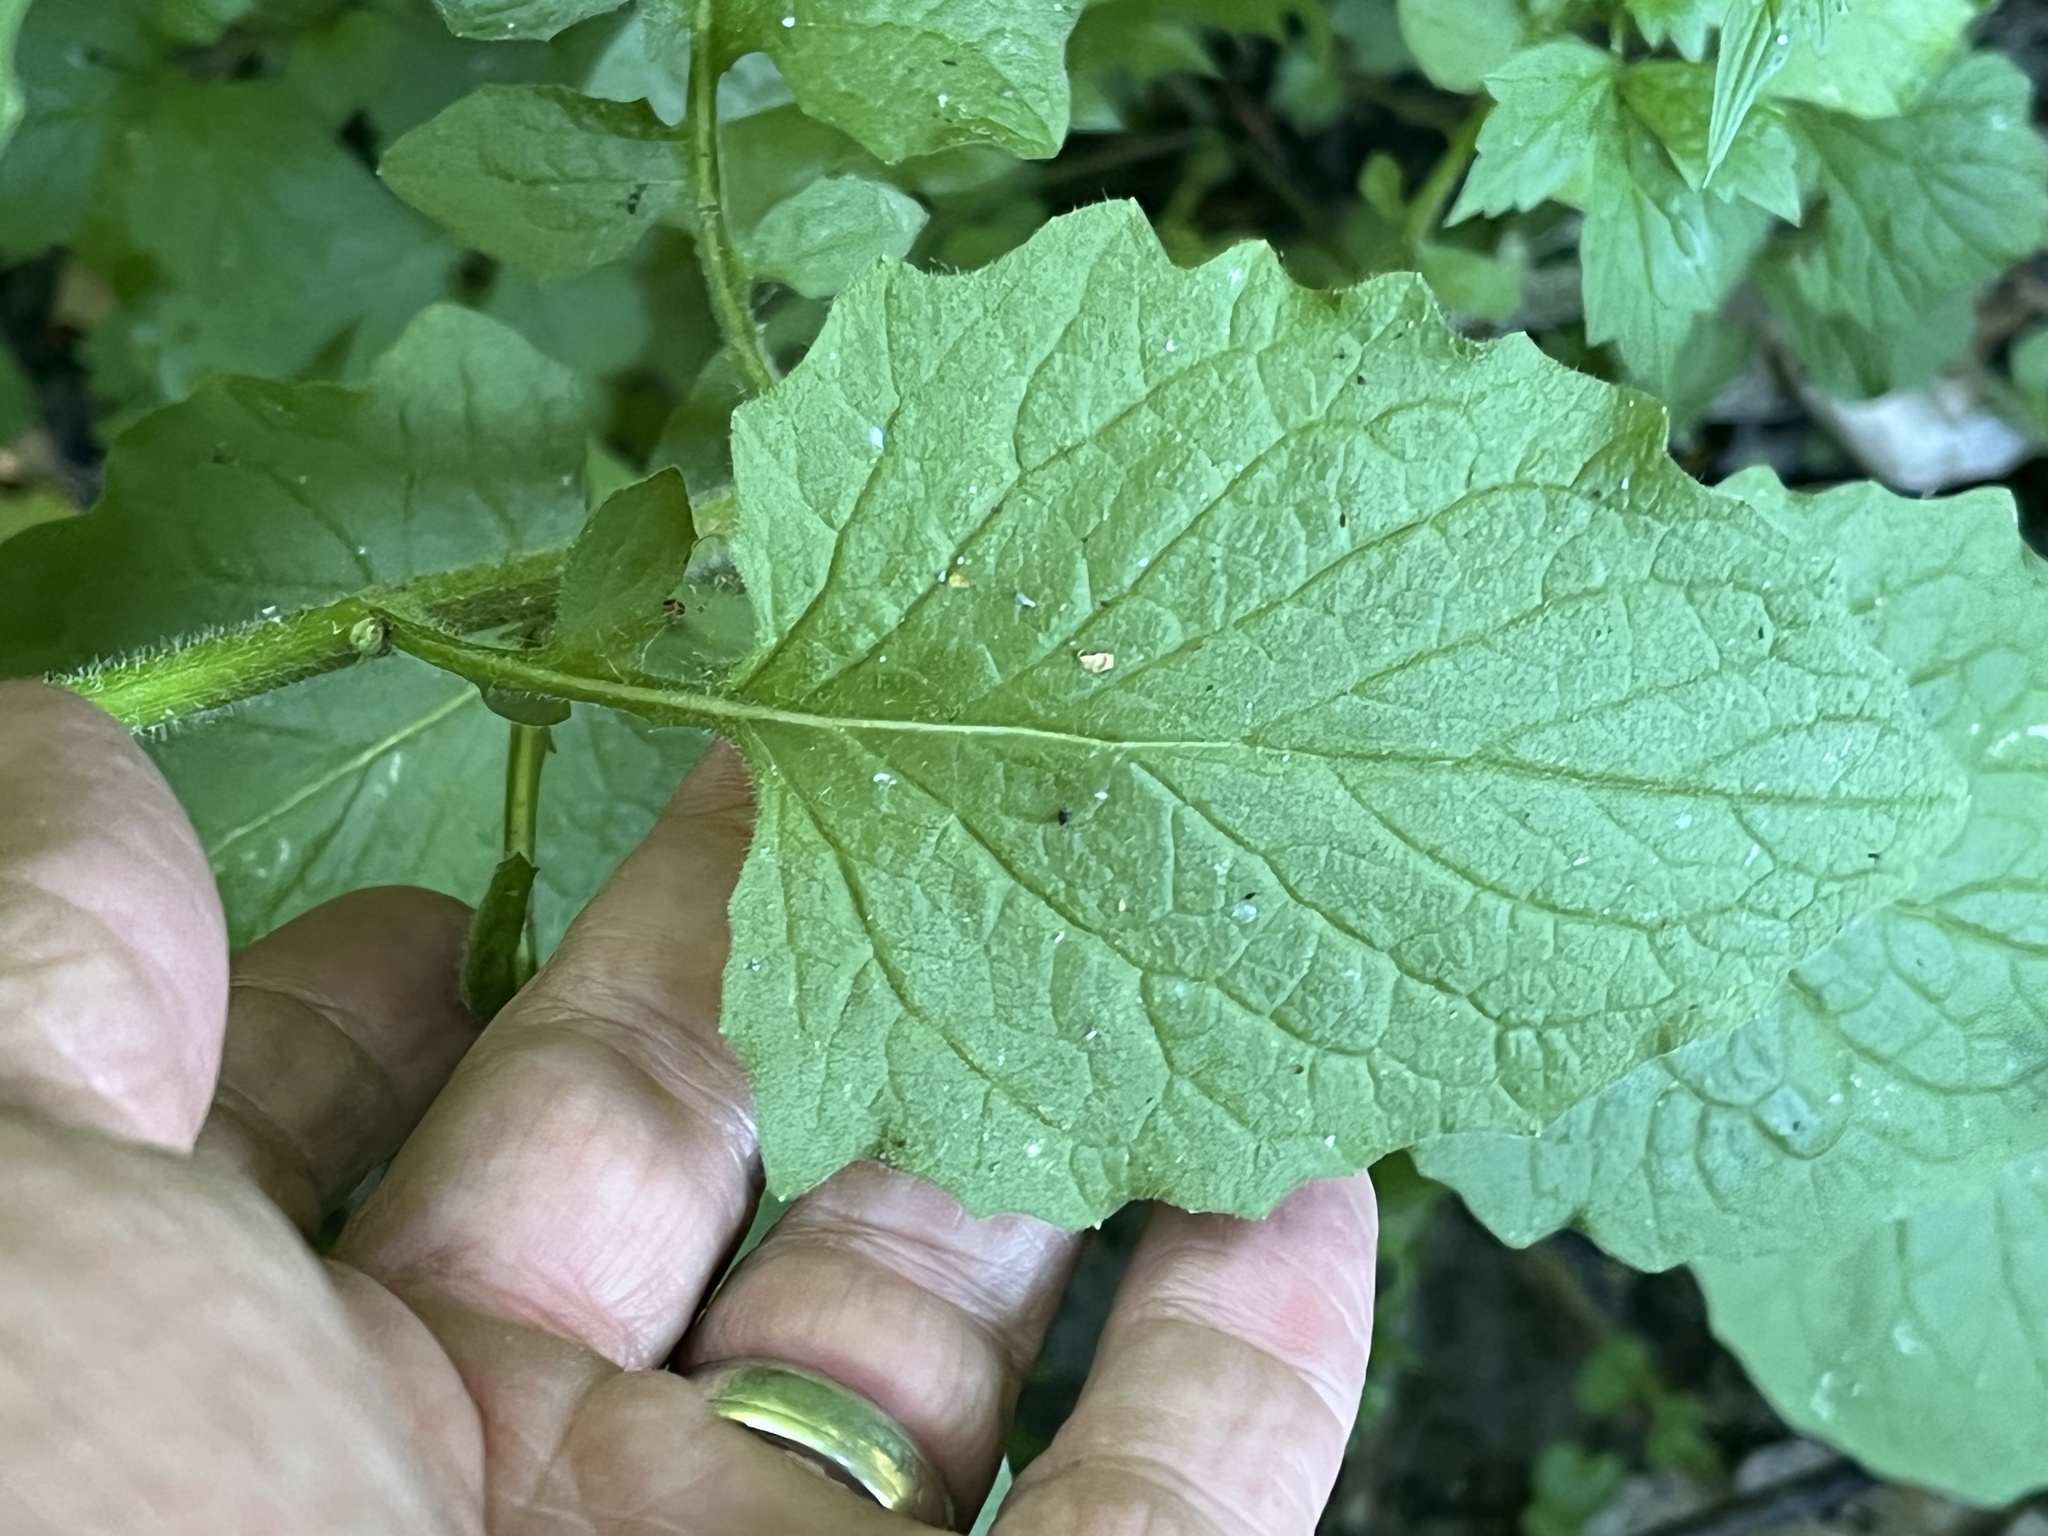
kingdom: Plantae
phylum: Tracheophyta
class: Magnoliopsida
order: Asterales
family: Asteraceae
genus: Lapsana
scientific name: Lapsana communis
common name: Nipplewort
